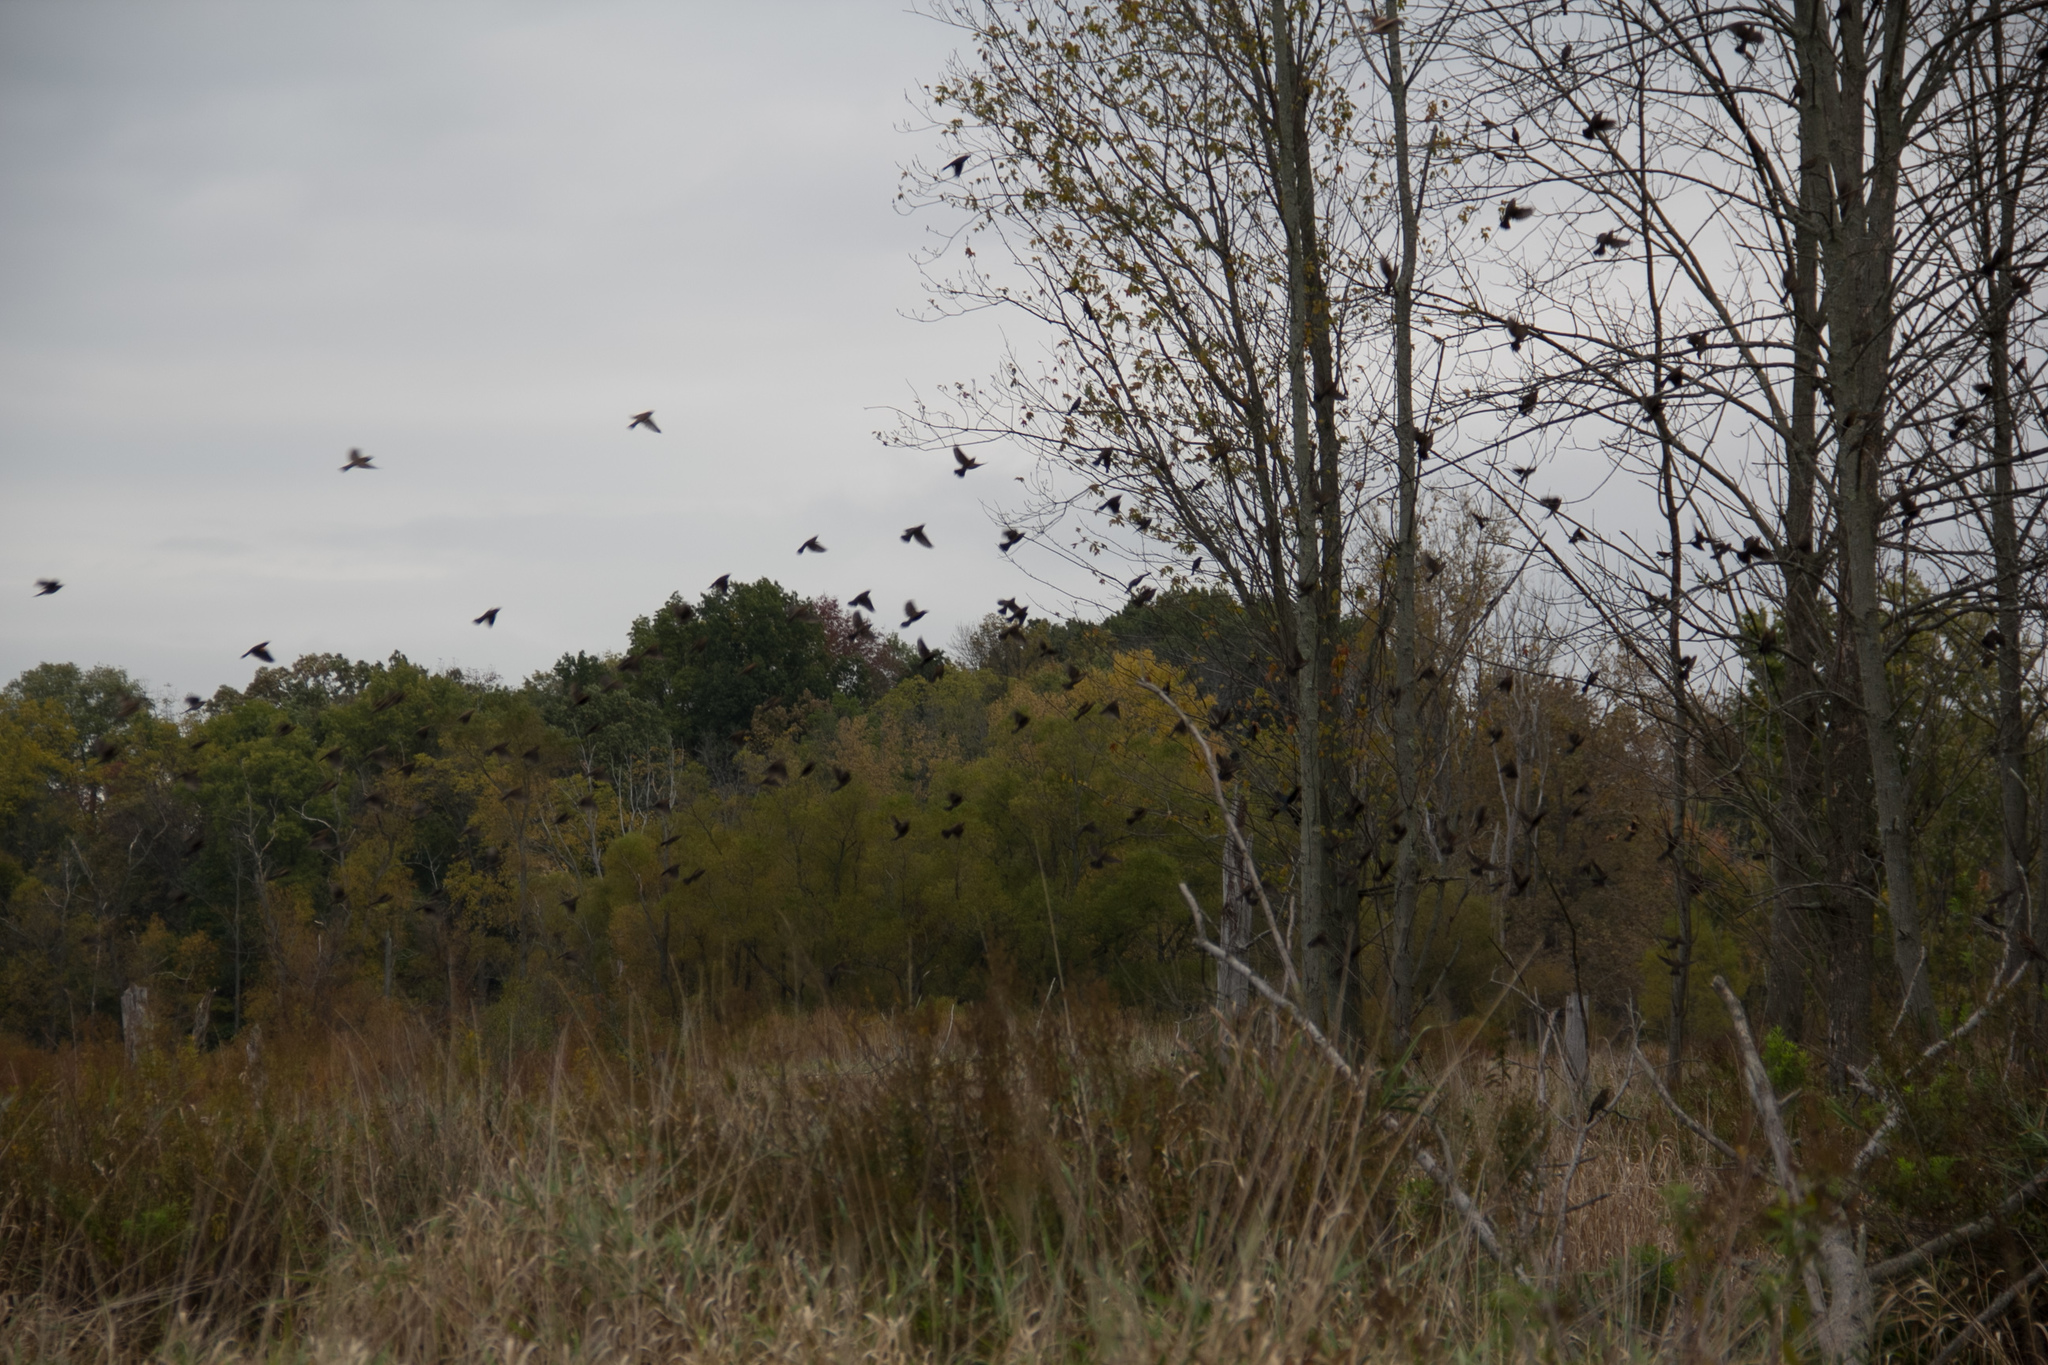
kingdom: Animalia
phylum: Chordata
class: Aves
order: Passeriformes
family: Icteridae
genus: Agelaius
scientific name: Agelaius phoeniceus
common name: Red-winged blackbird
